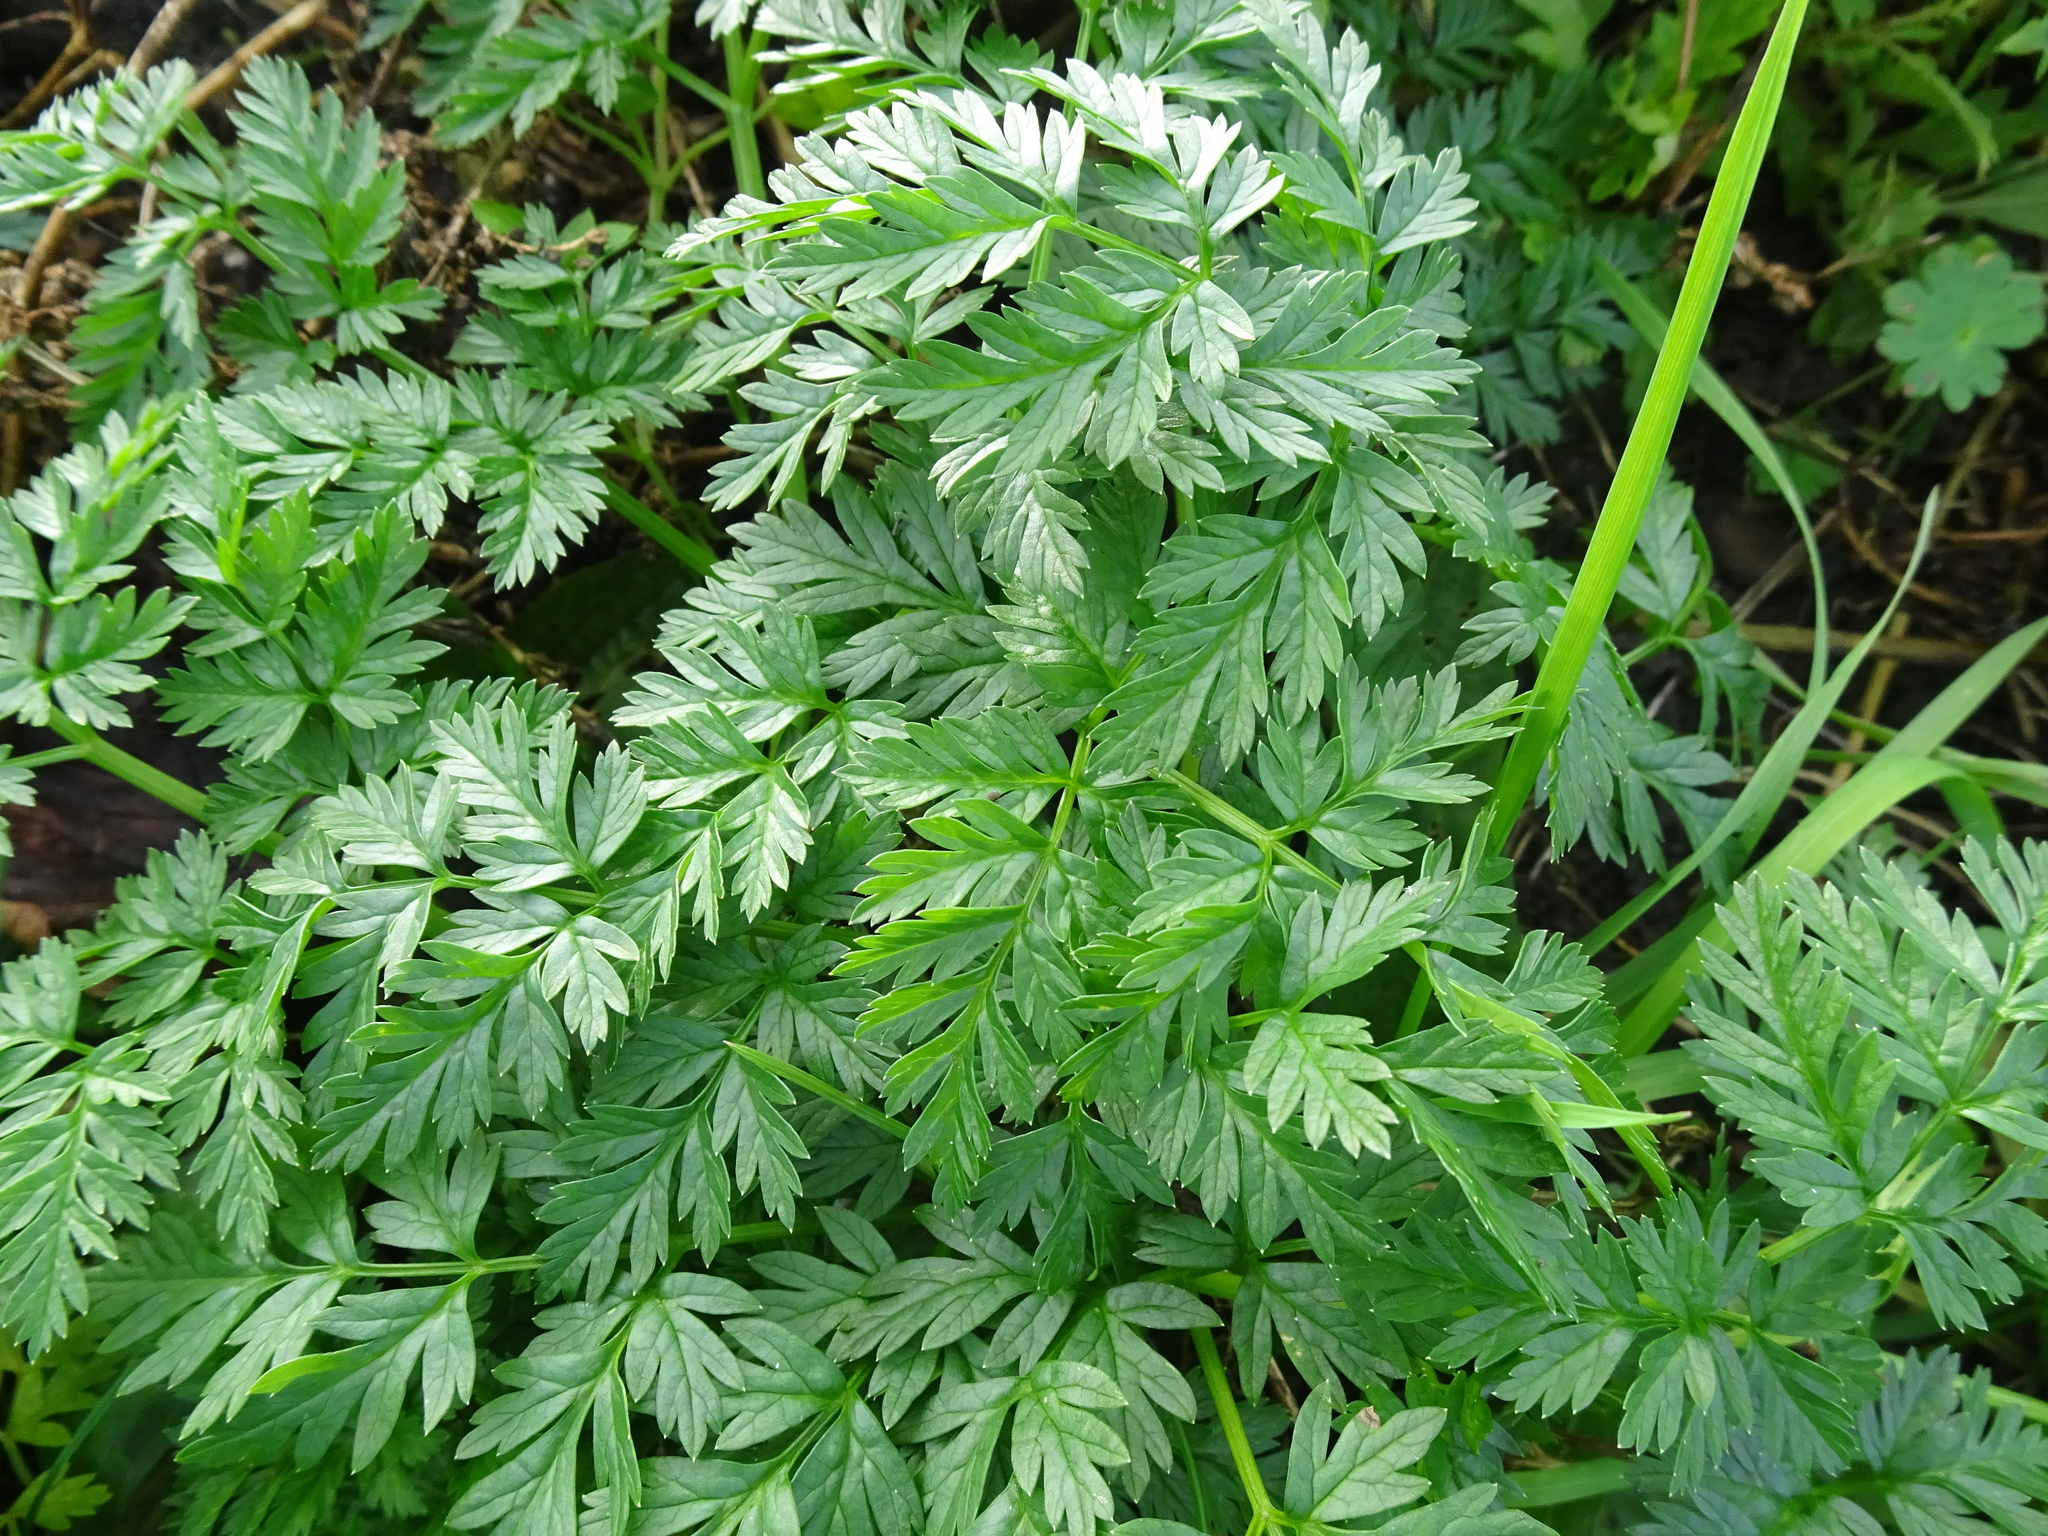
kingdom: Plantae
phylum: Tracheophyta
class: Magnoliopsida
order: Apiales
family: Apiaceae
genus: Anthriscus
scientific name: Anthriscus sylvestris
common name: Cow parsley
